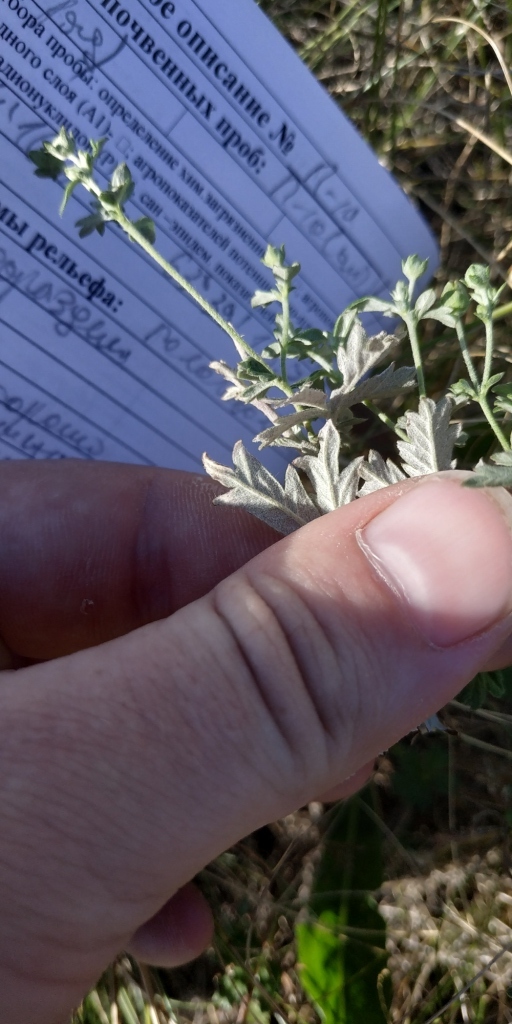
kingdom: Plantae
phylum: Tracheophyta
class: Magnoliopsida
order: Rosales
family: Rosaceae
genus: Potentilla
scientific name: Potentilla argentea
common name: Hoary cinquefoil
